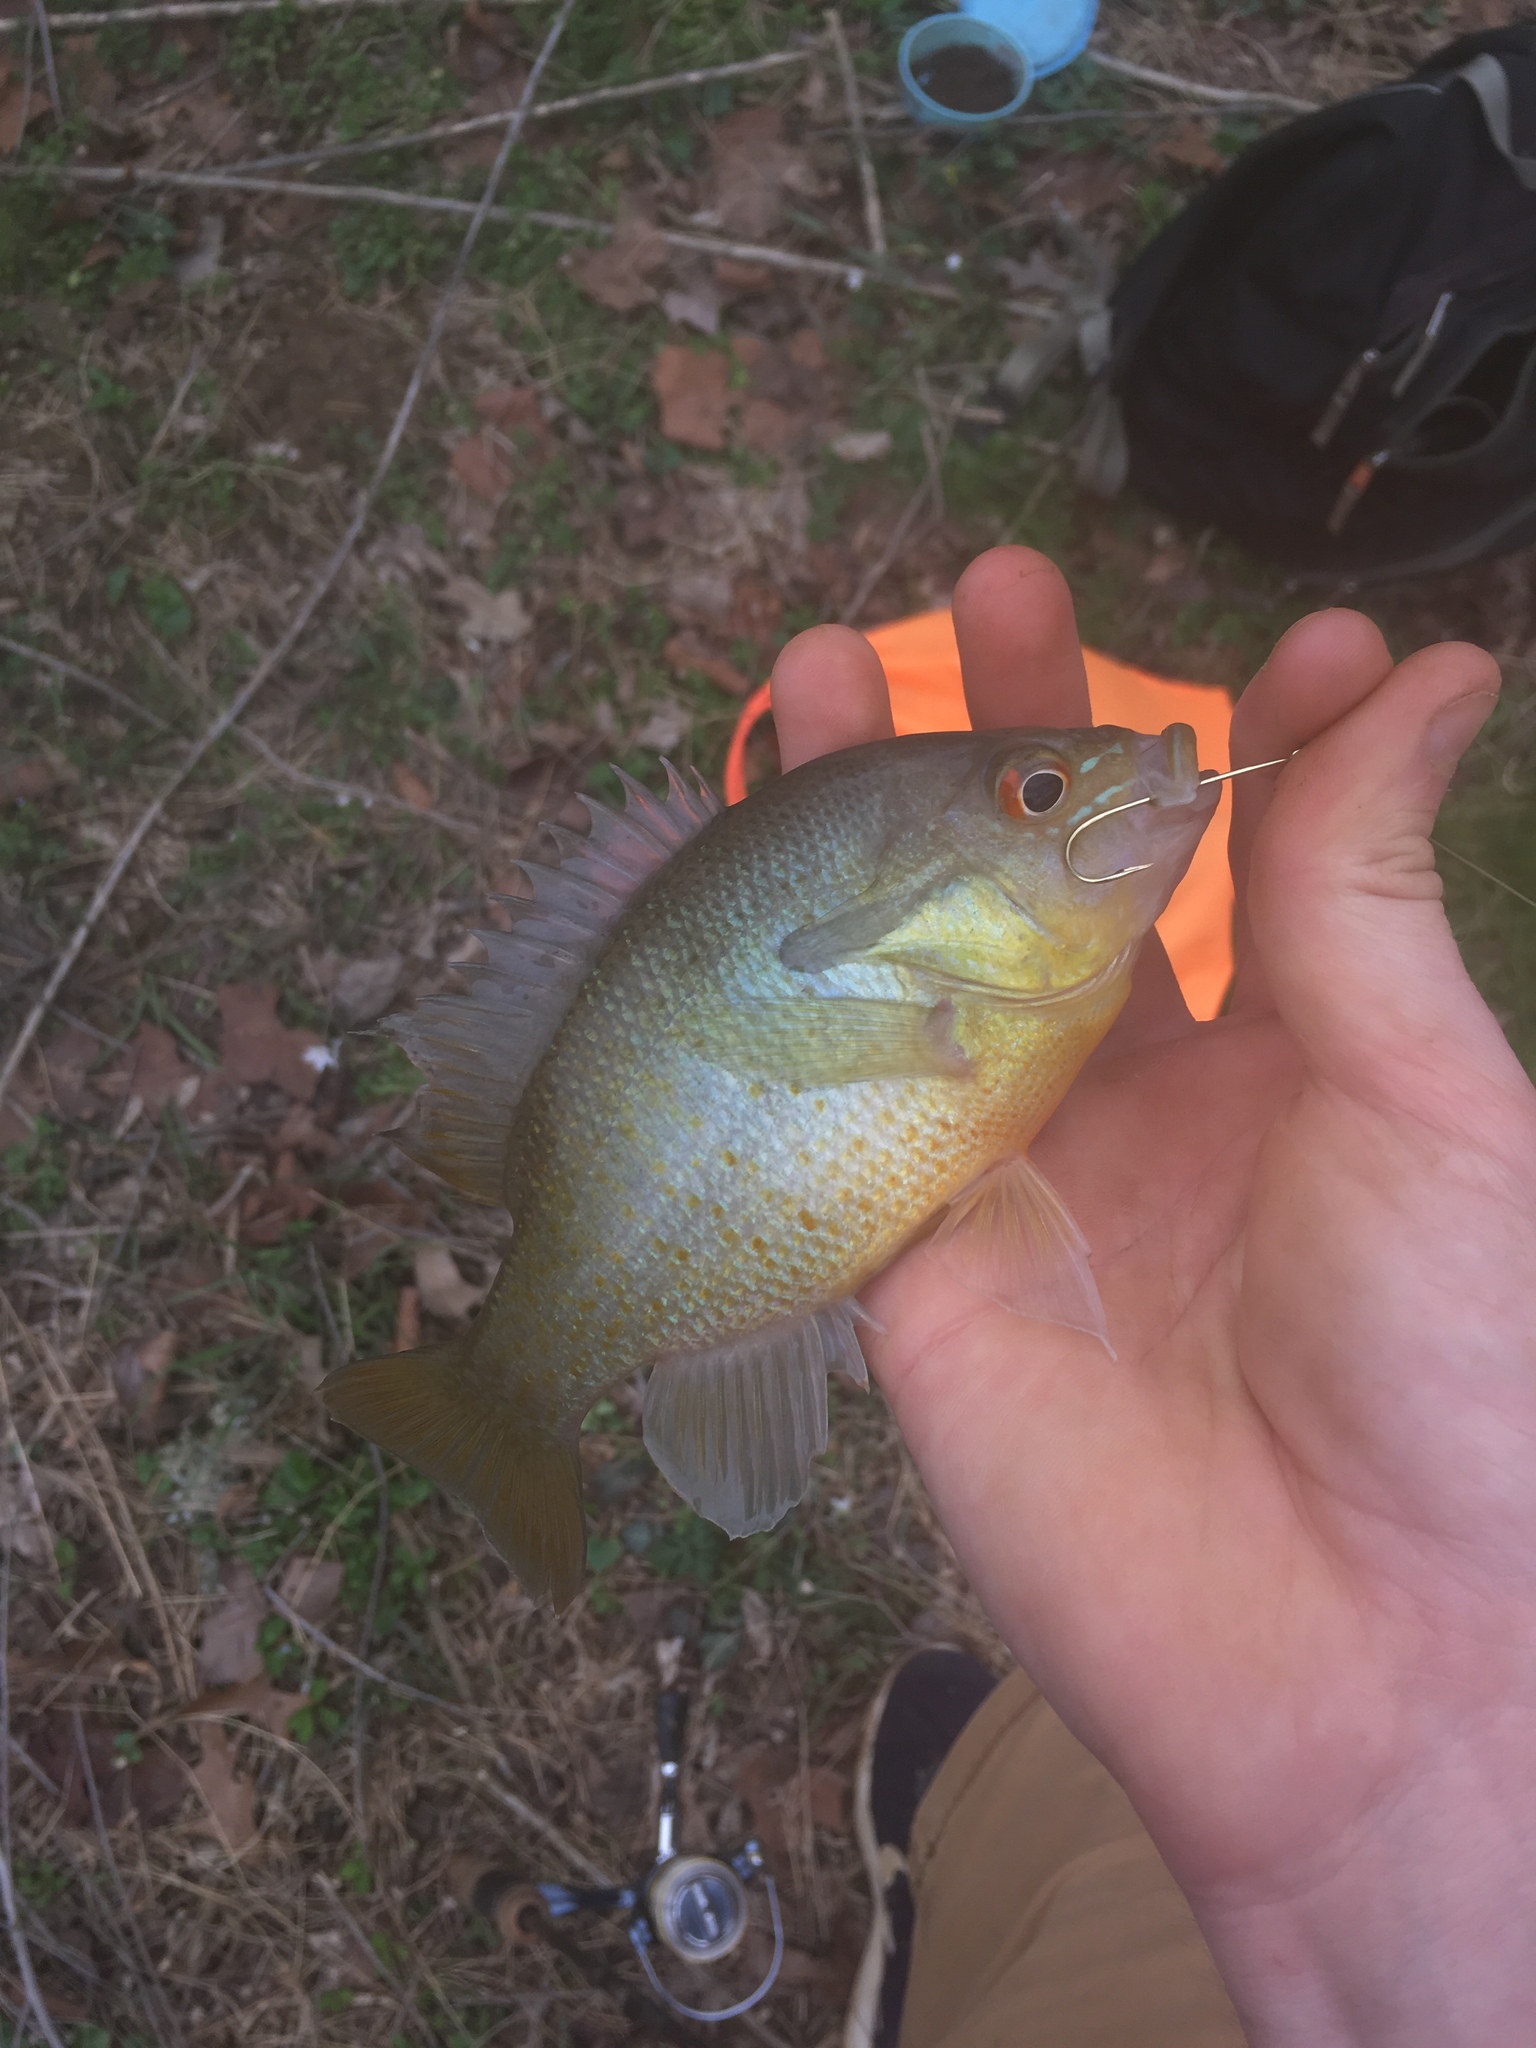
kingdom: Animalia
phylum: Chordata
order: Perciformes
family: Centrarchidae
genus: Lepomis
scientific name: Lepomis auritus
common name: Redbreast sunfish
